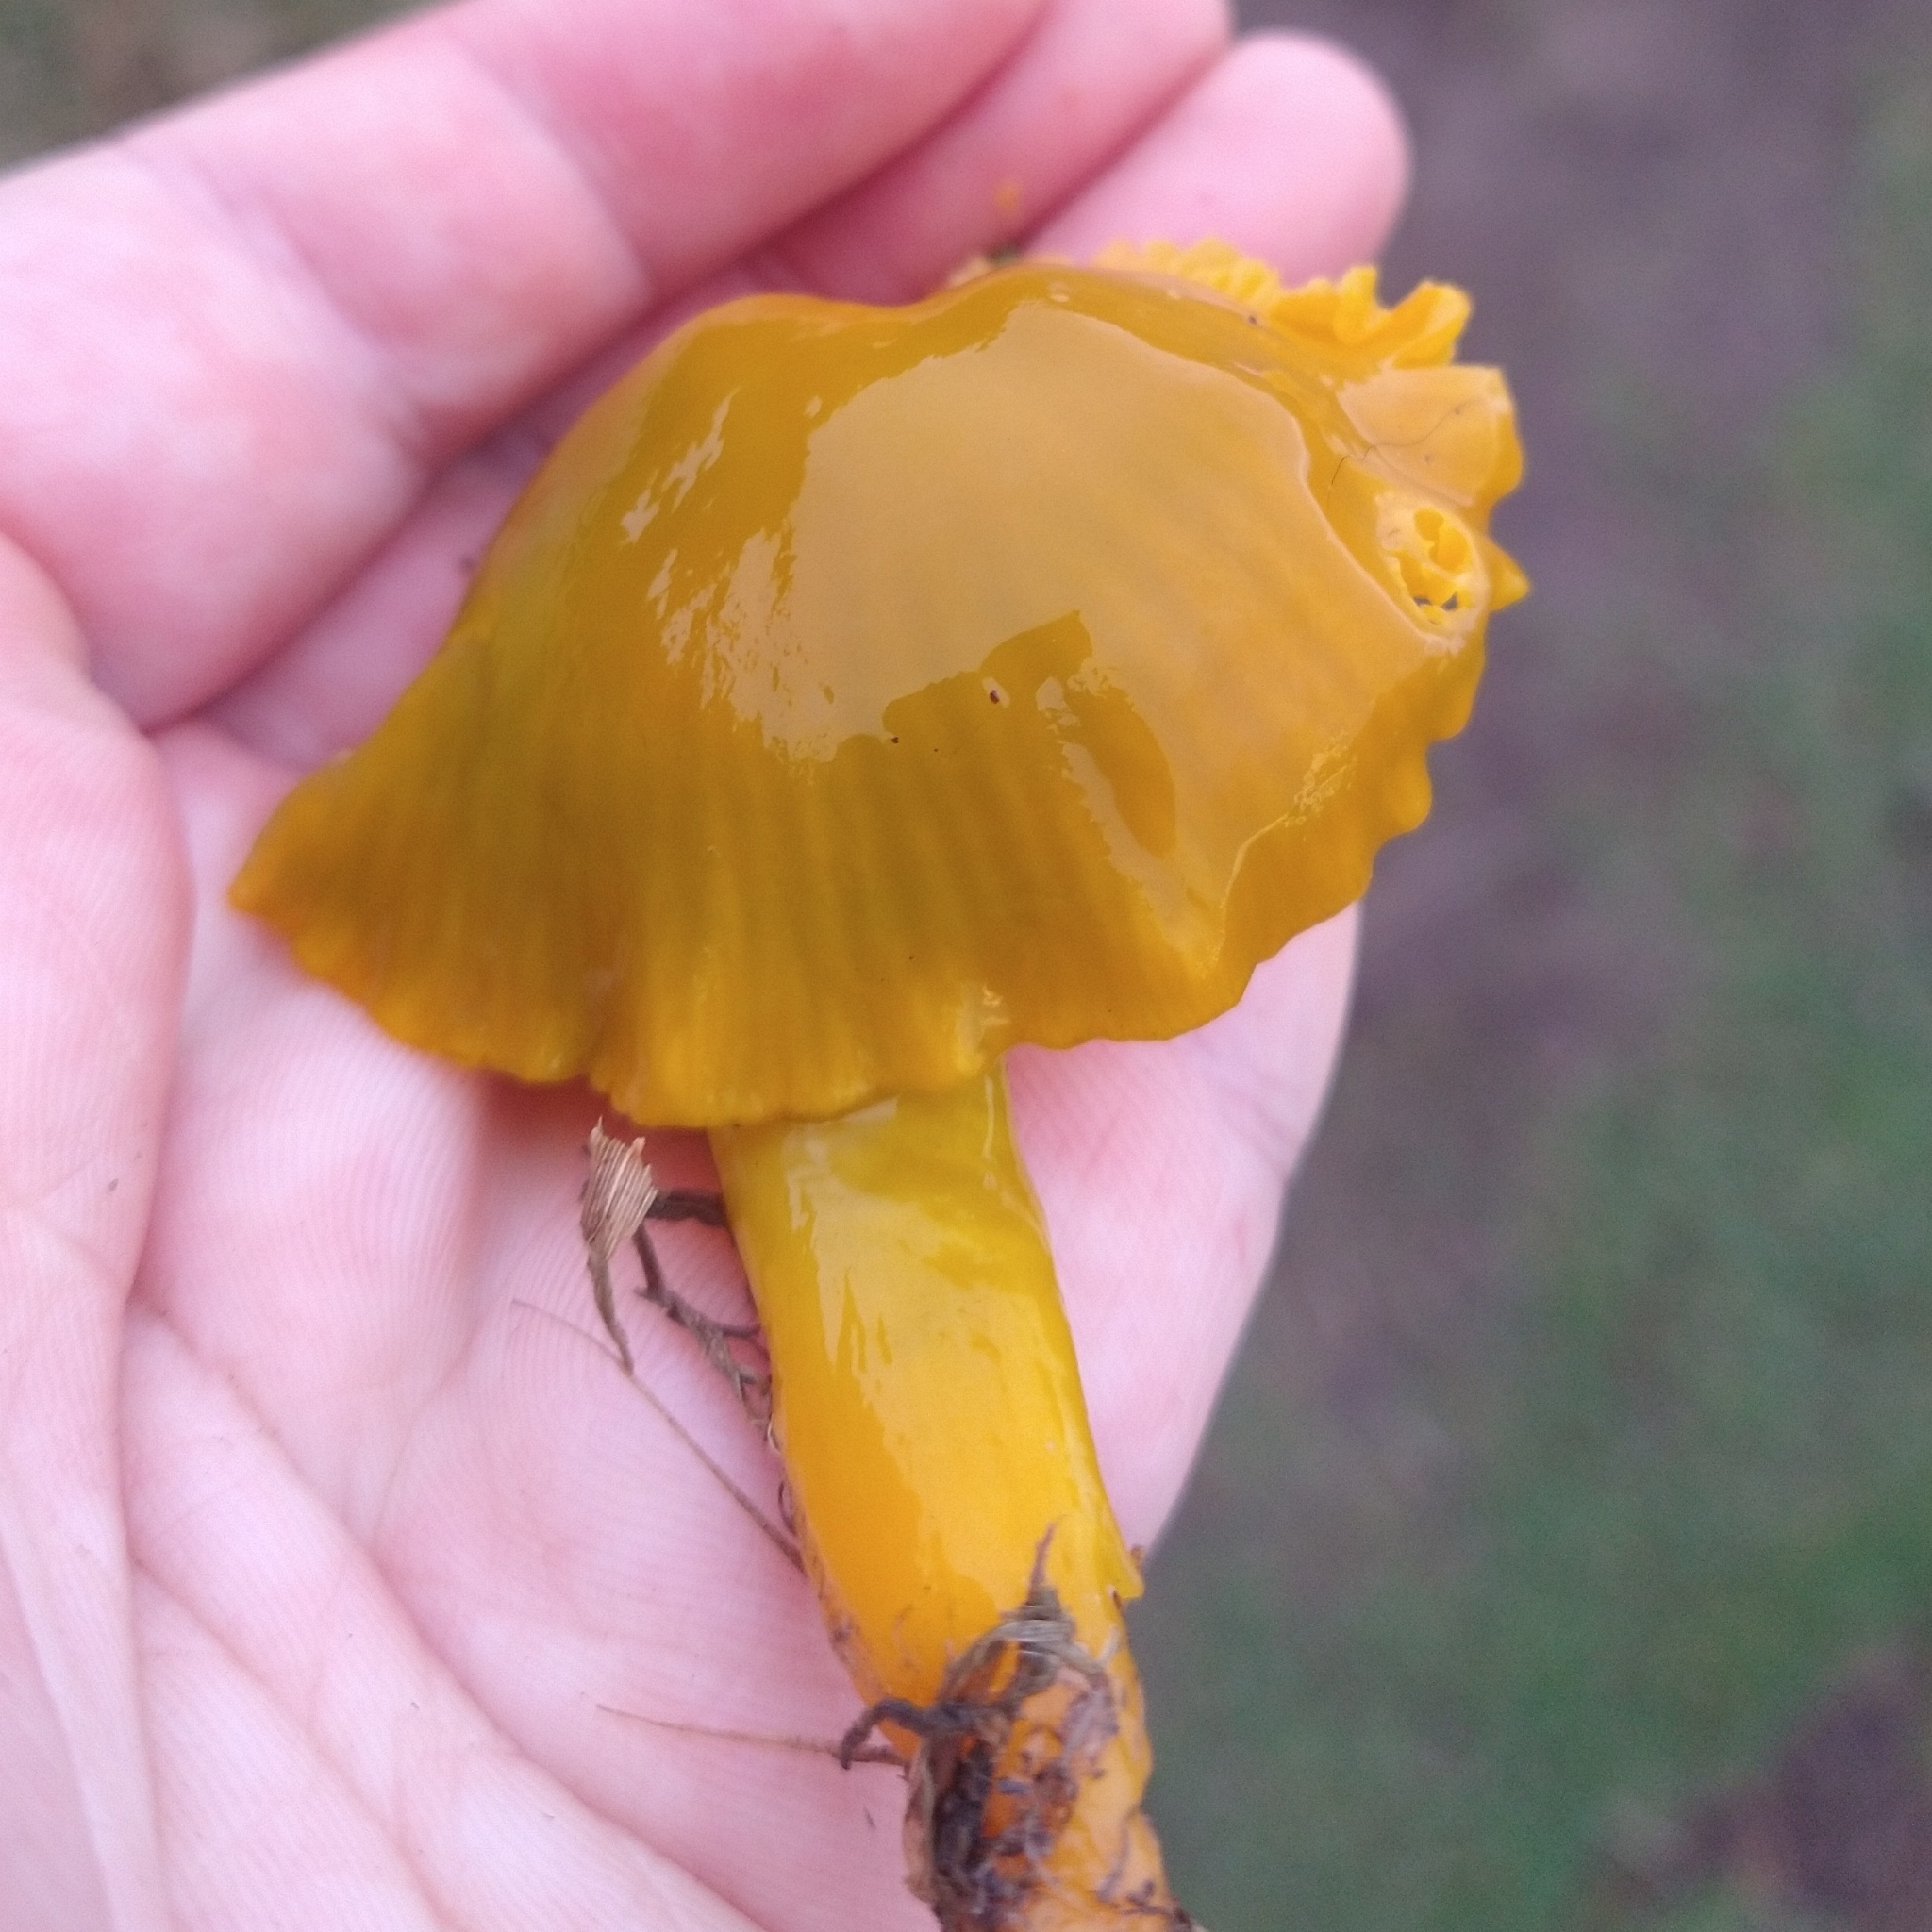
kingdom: Fungi
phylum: Basidiomycota
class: Agaricomycetes
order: Agaricales
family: Hygrophoraceae
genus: Gliophorus
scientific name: Gliophorus psittacinus
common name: Parrot wax-cap
